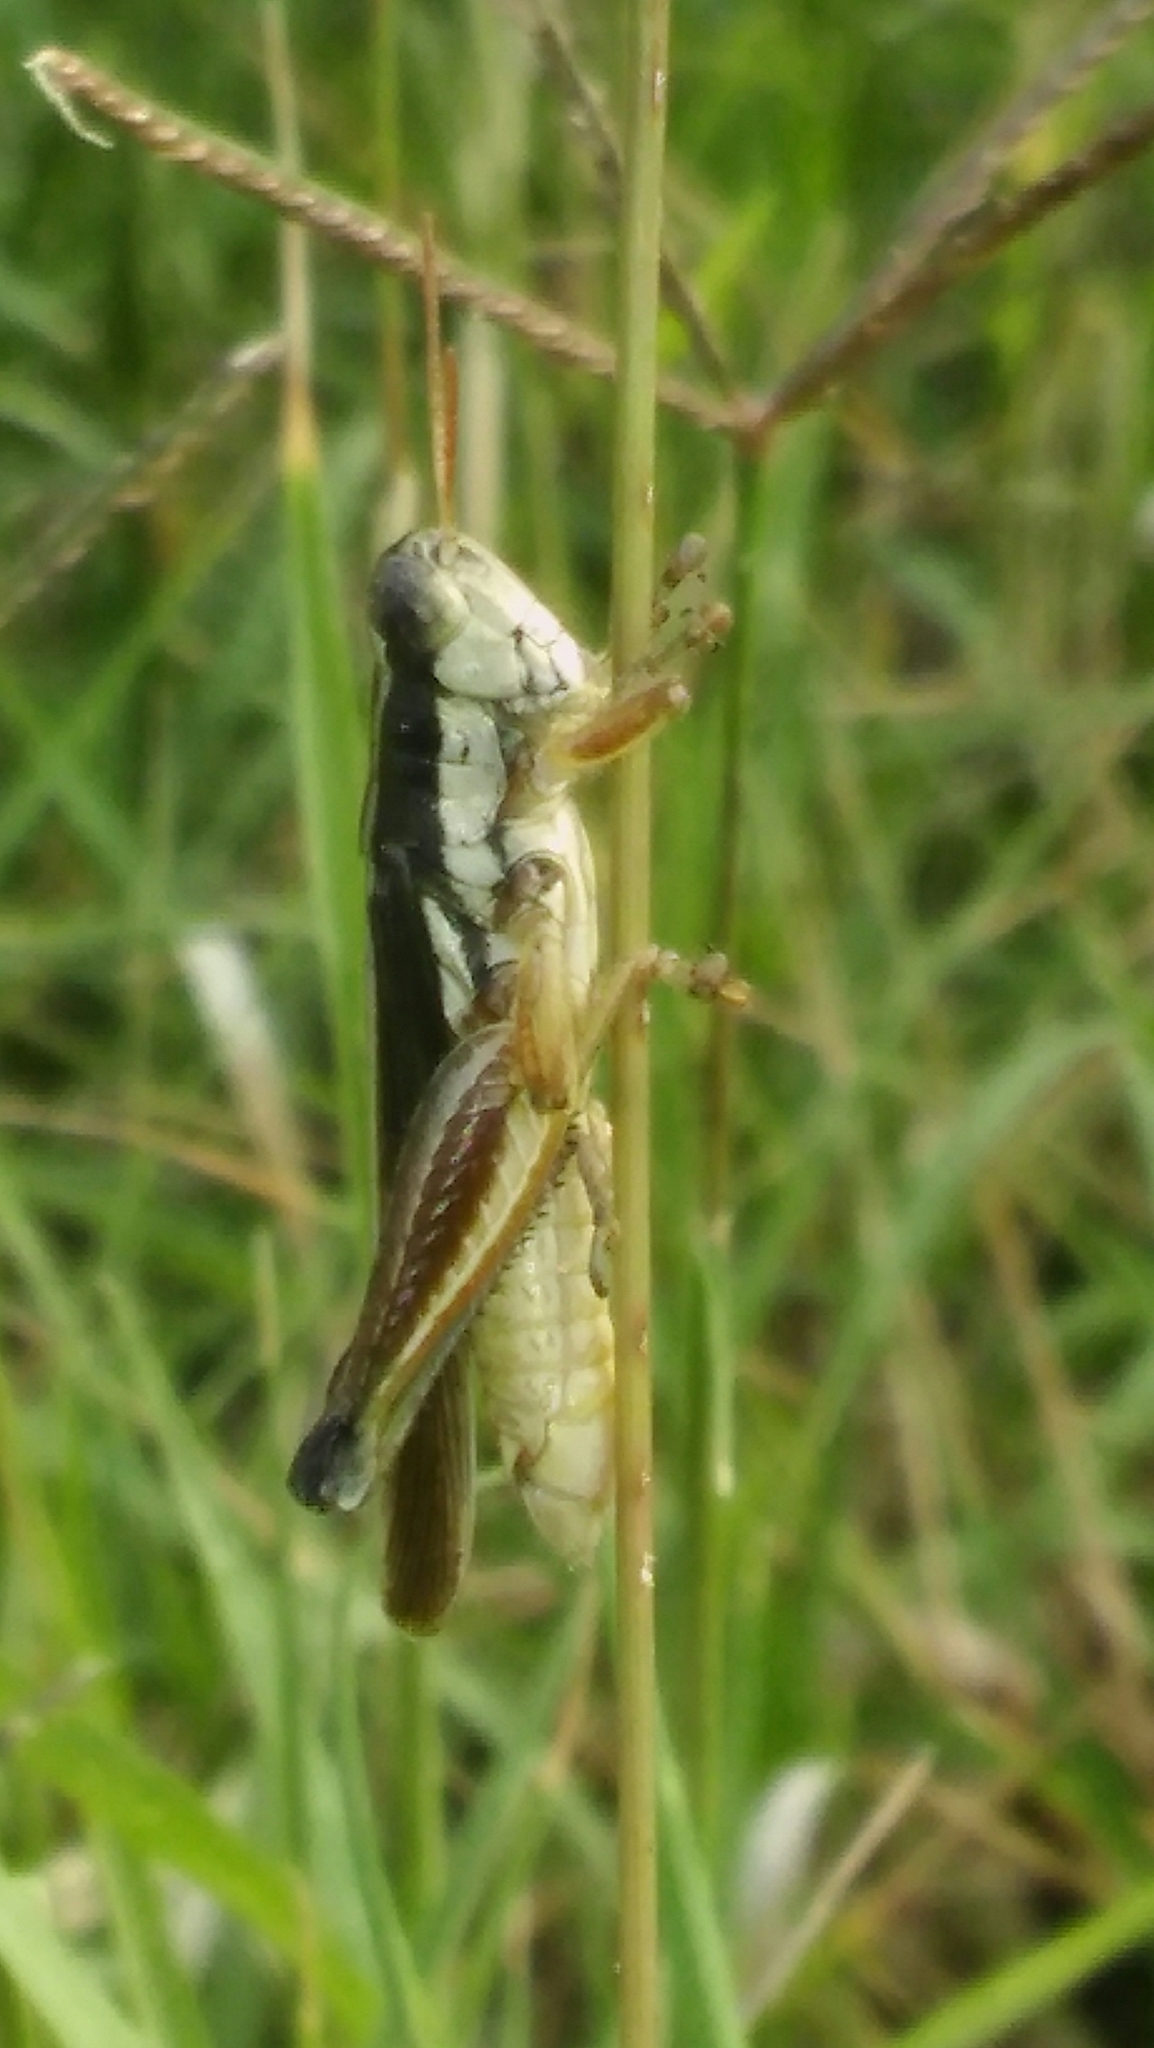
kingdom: Animalia
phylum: Arthropoda
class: Insecta
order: Orthoptera
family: Acrididae
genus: Dichroplus
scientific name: Dichroplus elongatus
